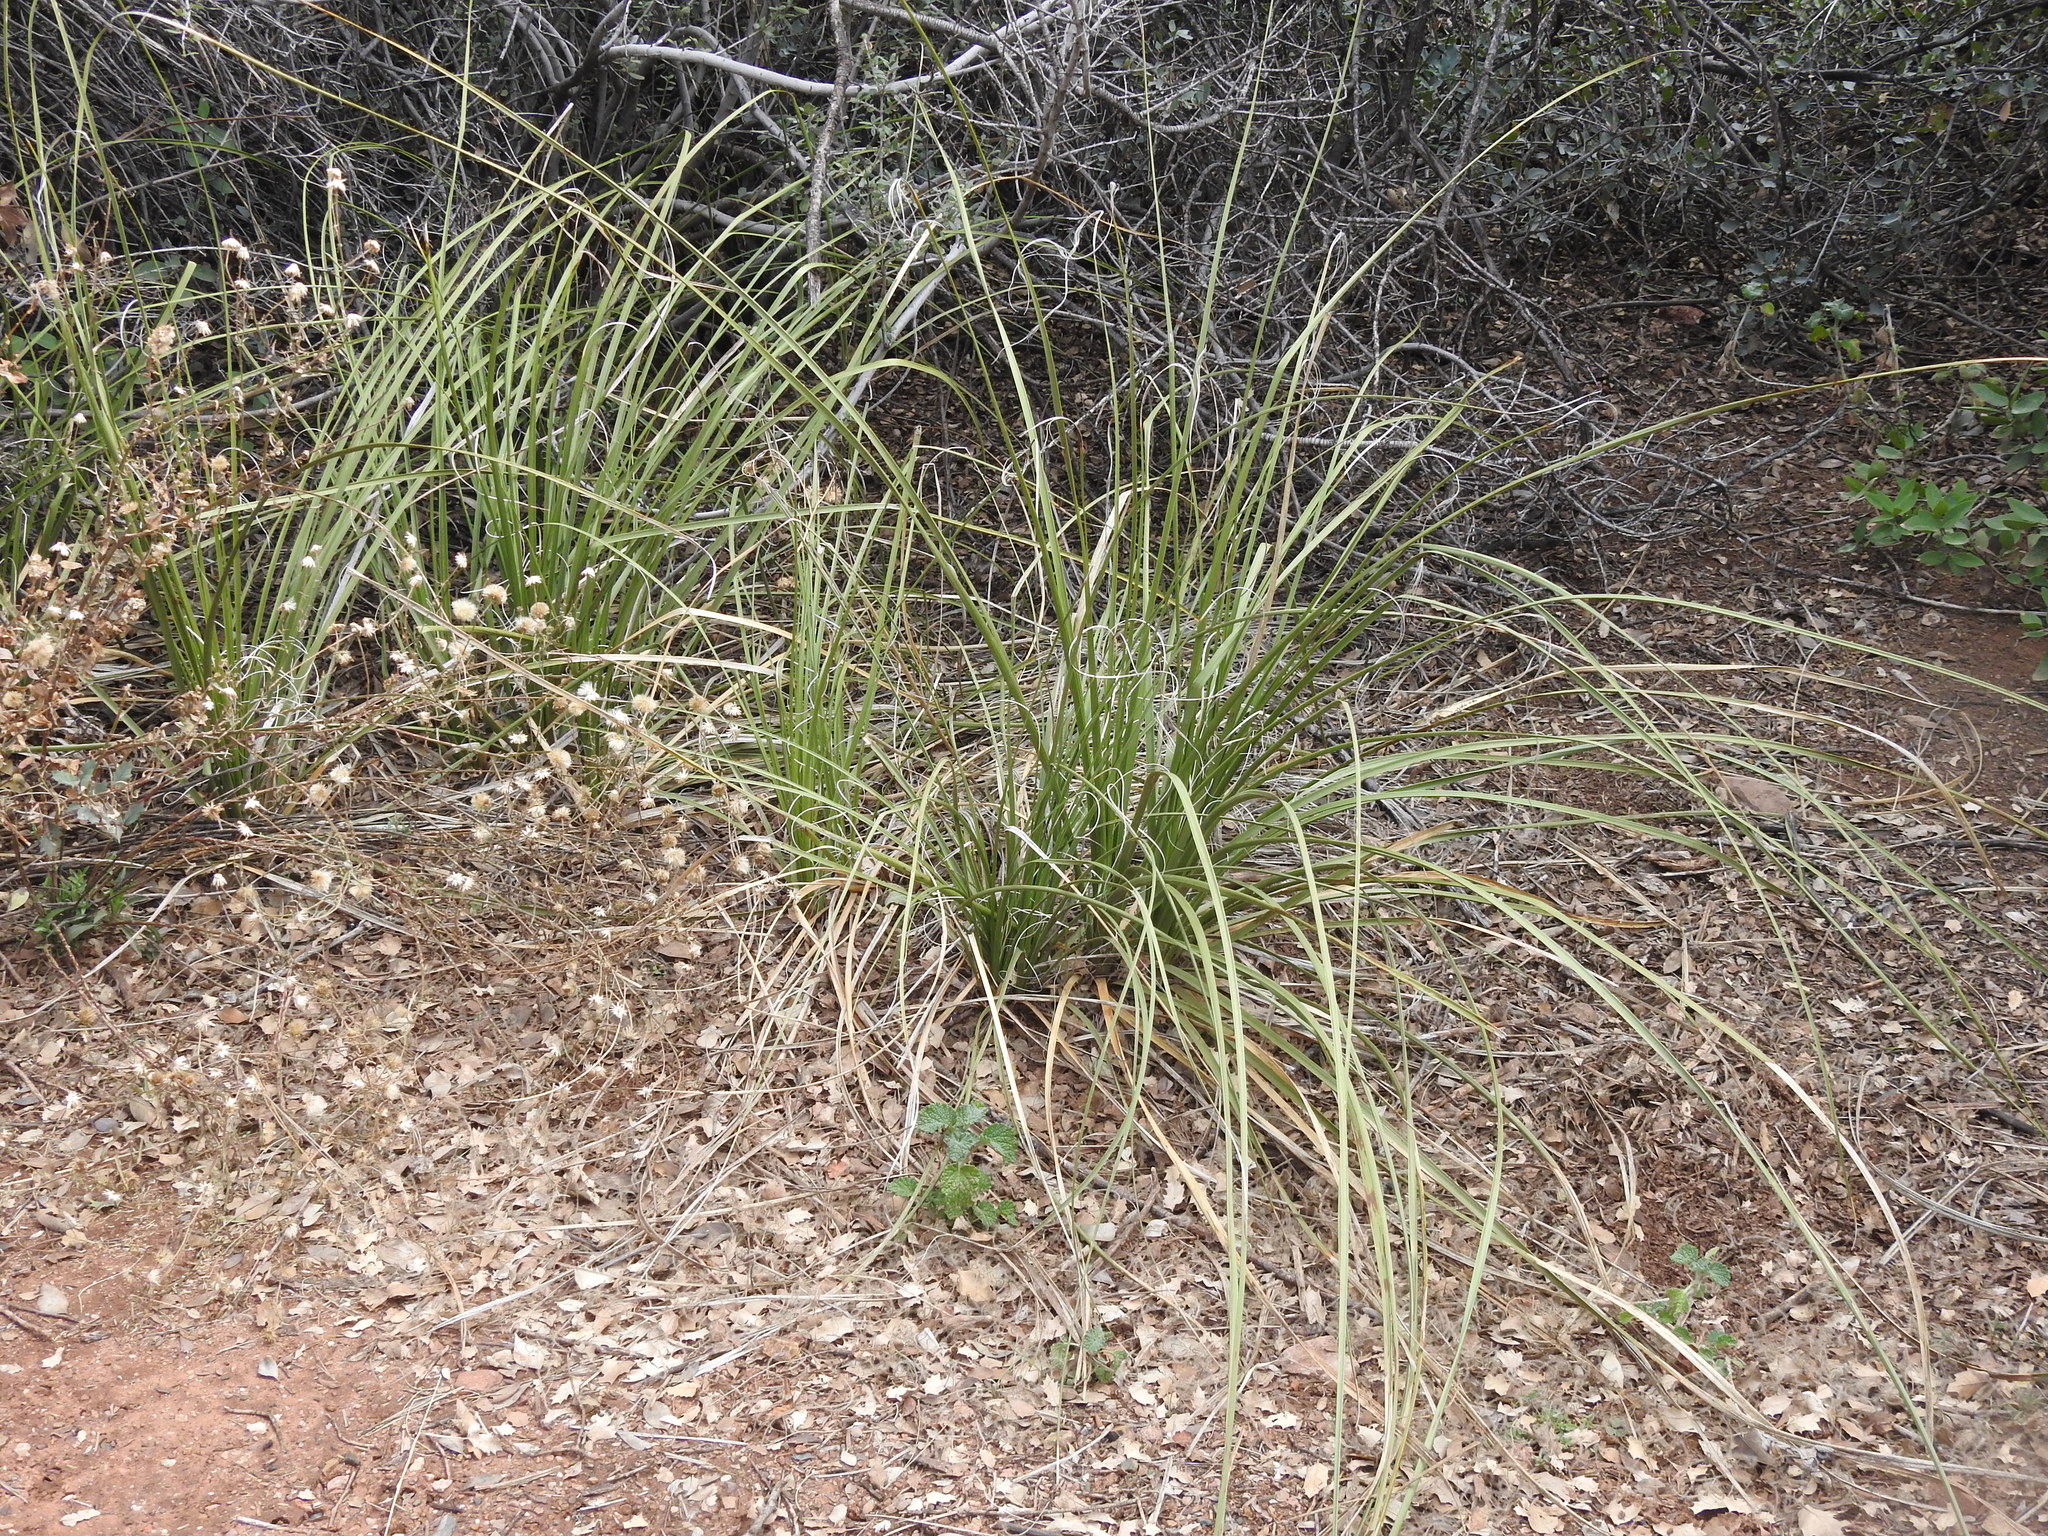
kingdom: Plantae
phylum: Tracheophyta
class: Liliopsida
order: Asparagales
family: Asparagaceae
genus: Nolina
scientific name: Nolina microcarpa
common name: Bear-grass
